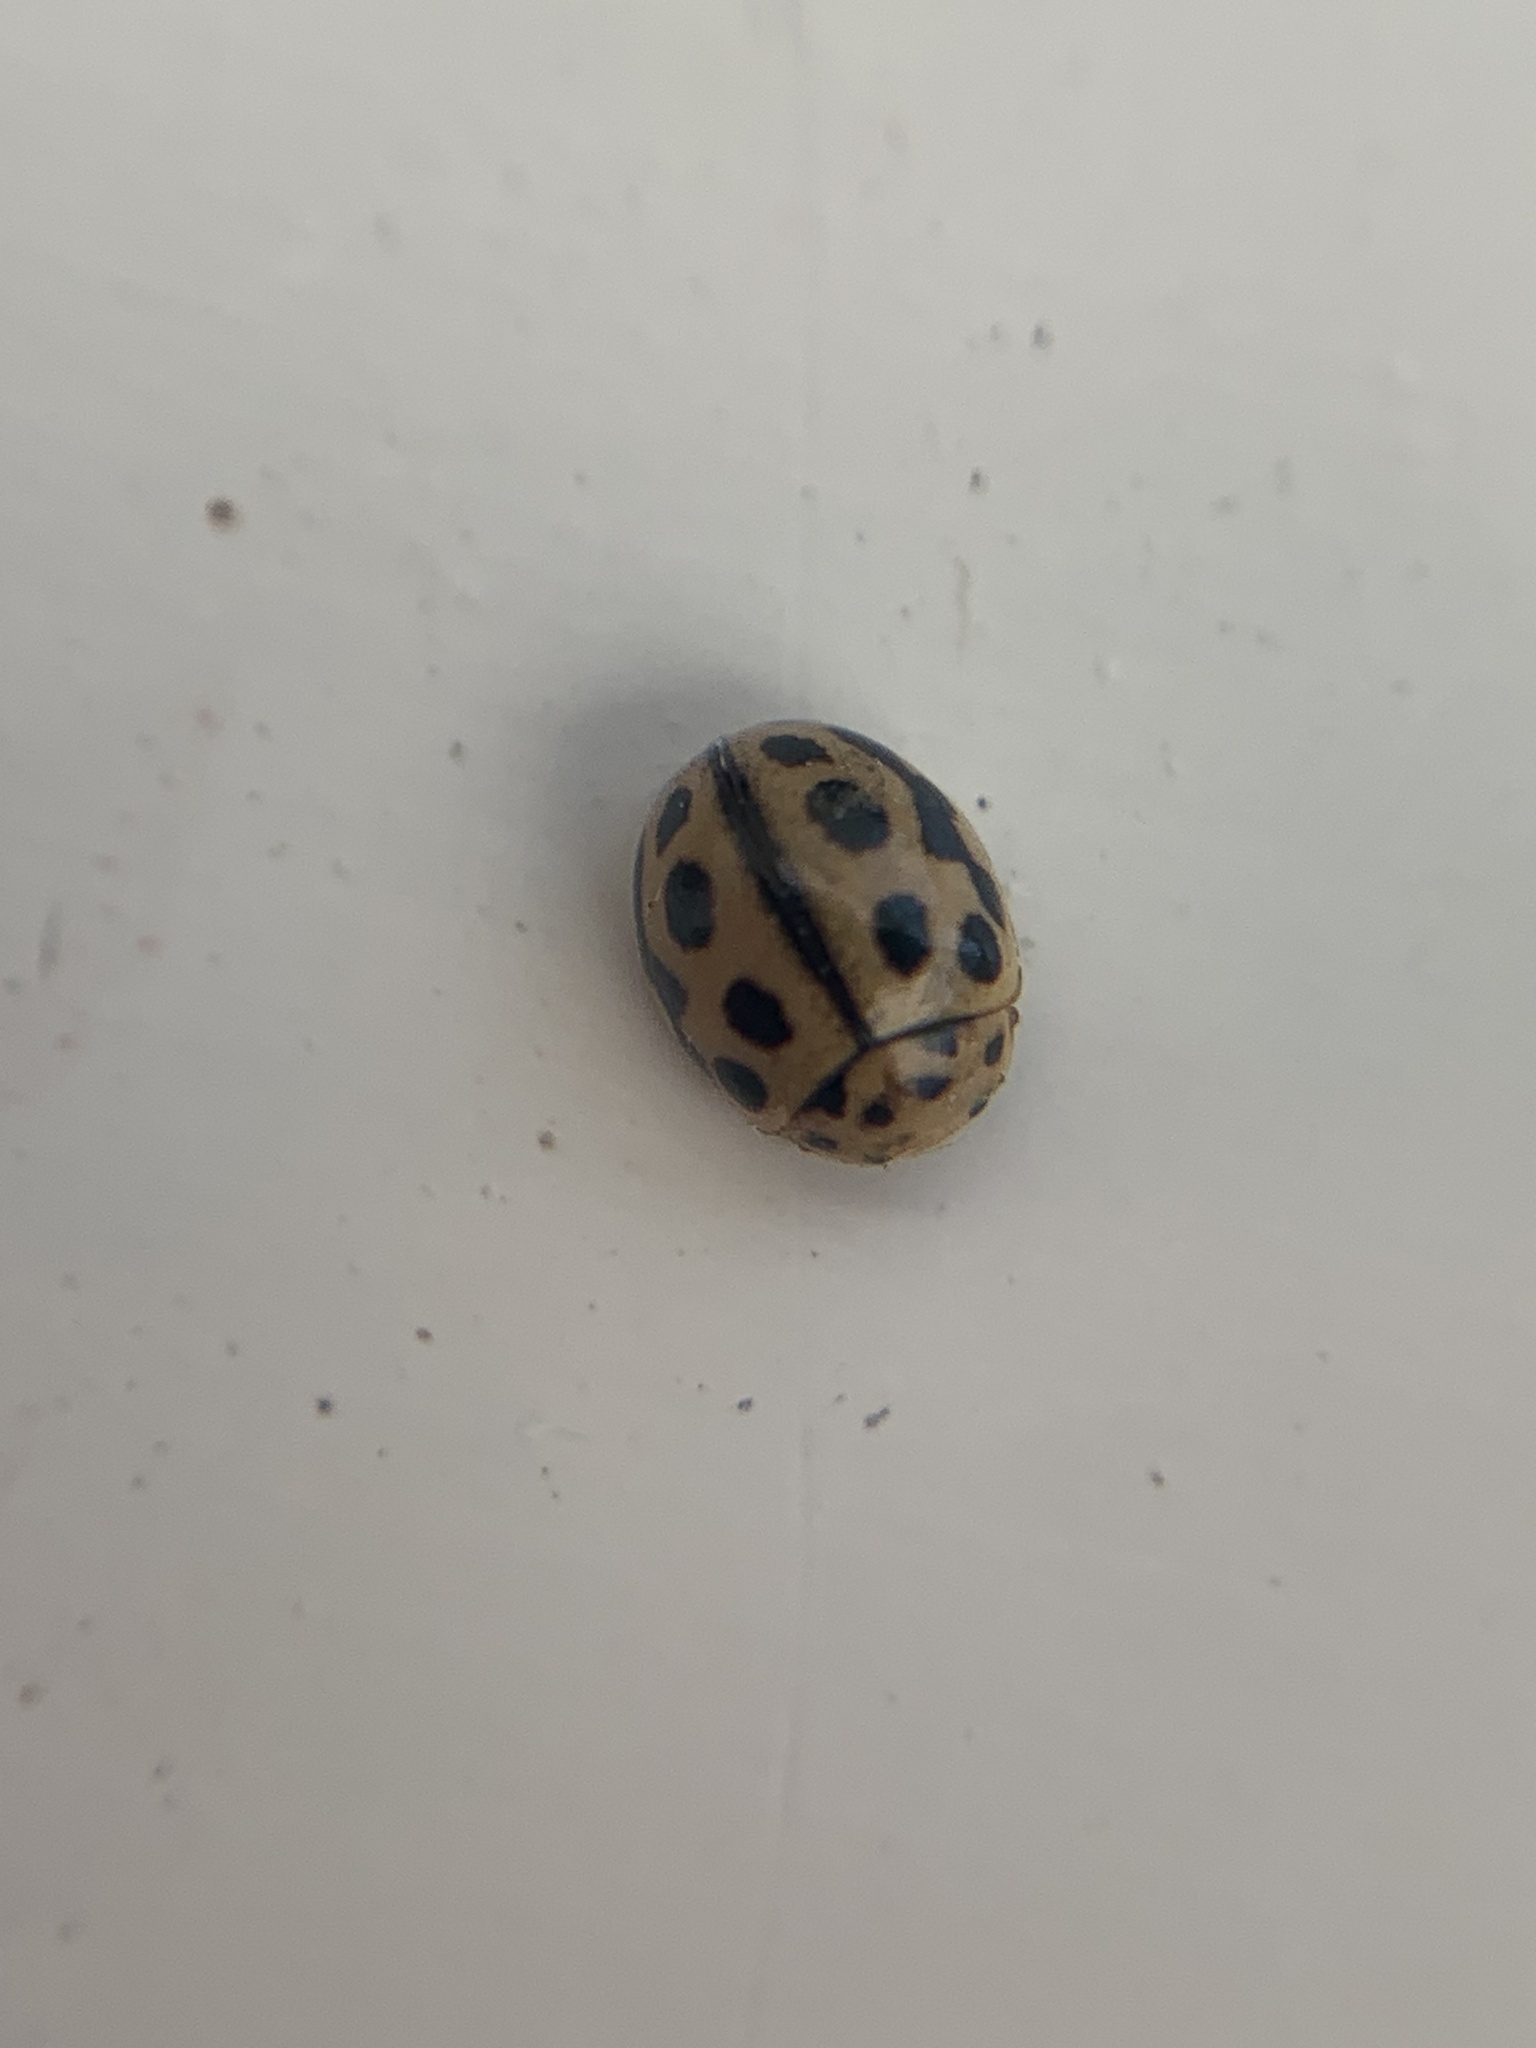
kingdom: Animalia
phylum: Arthropoda
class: Insecta
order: Coleoptera
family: Coccinellidae
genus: Tytthaspis
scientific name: Tytthaspis sedecimpunctata
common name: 16-spot ladybird
